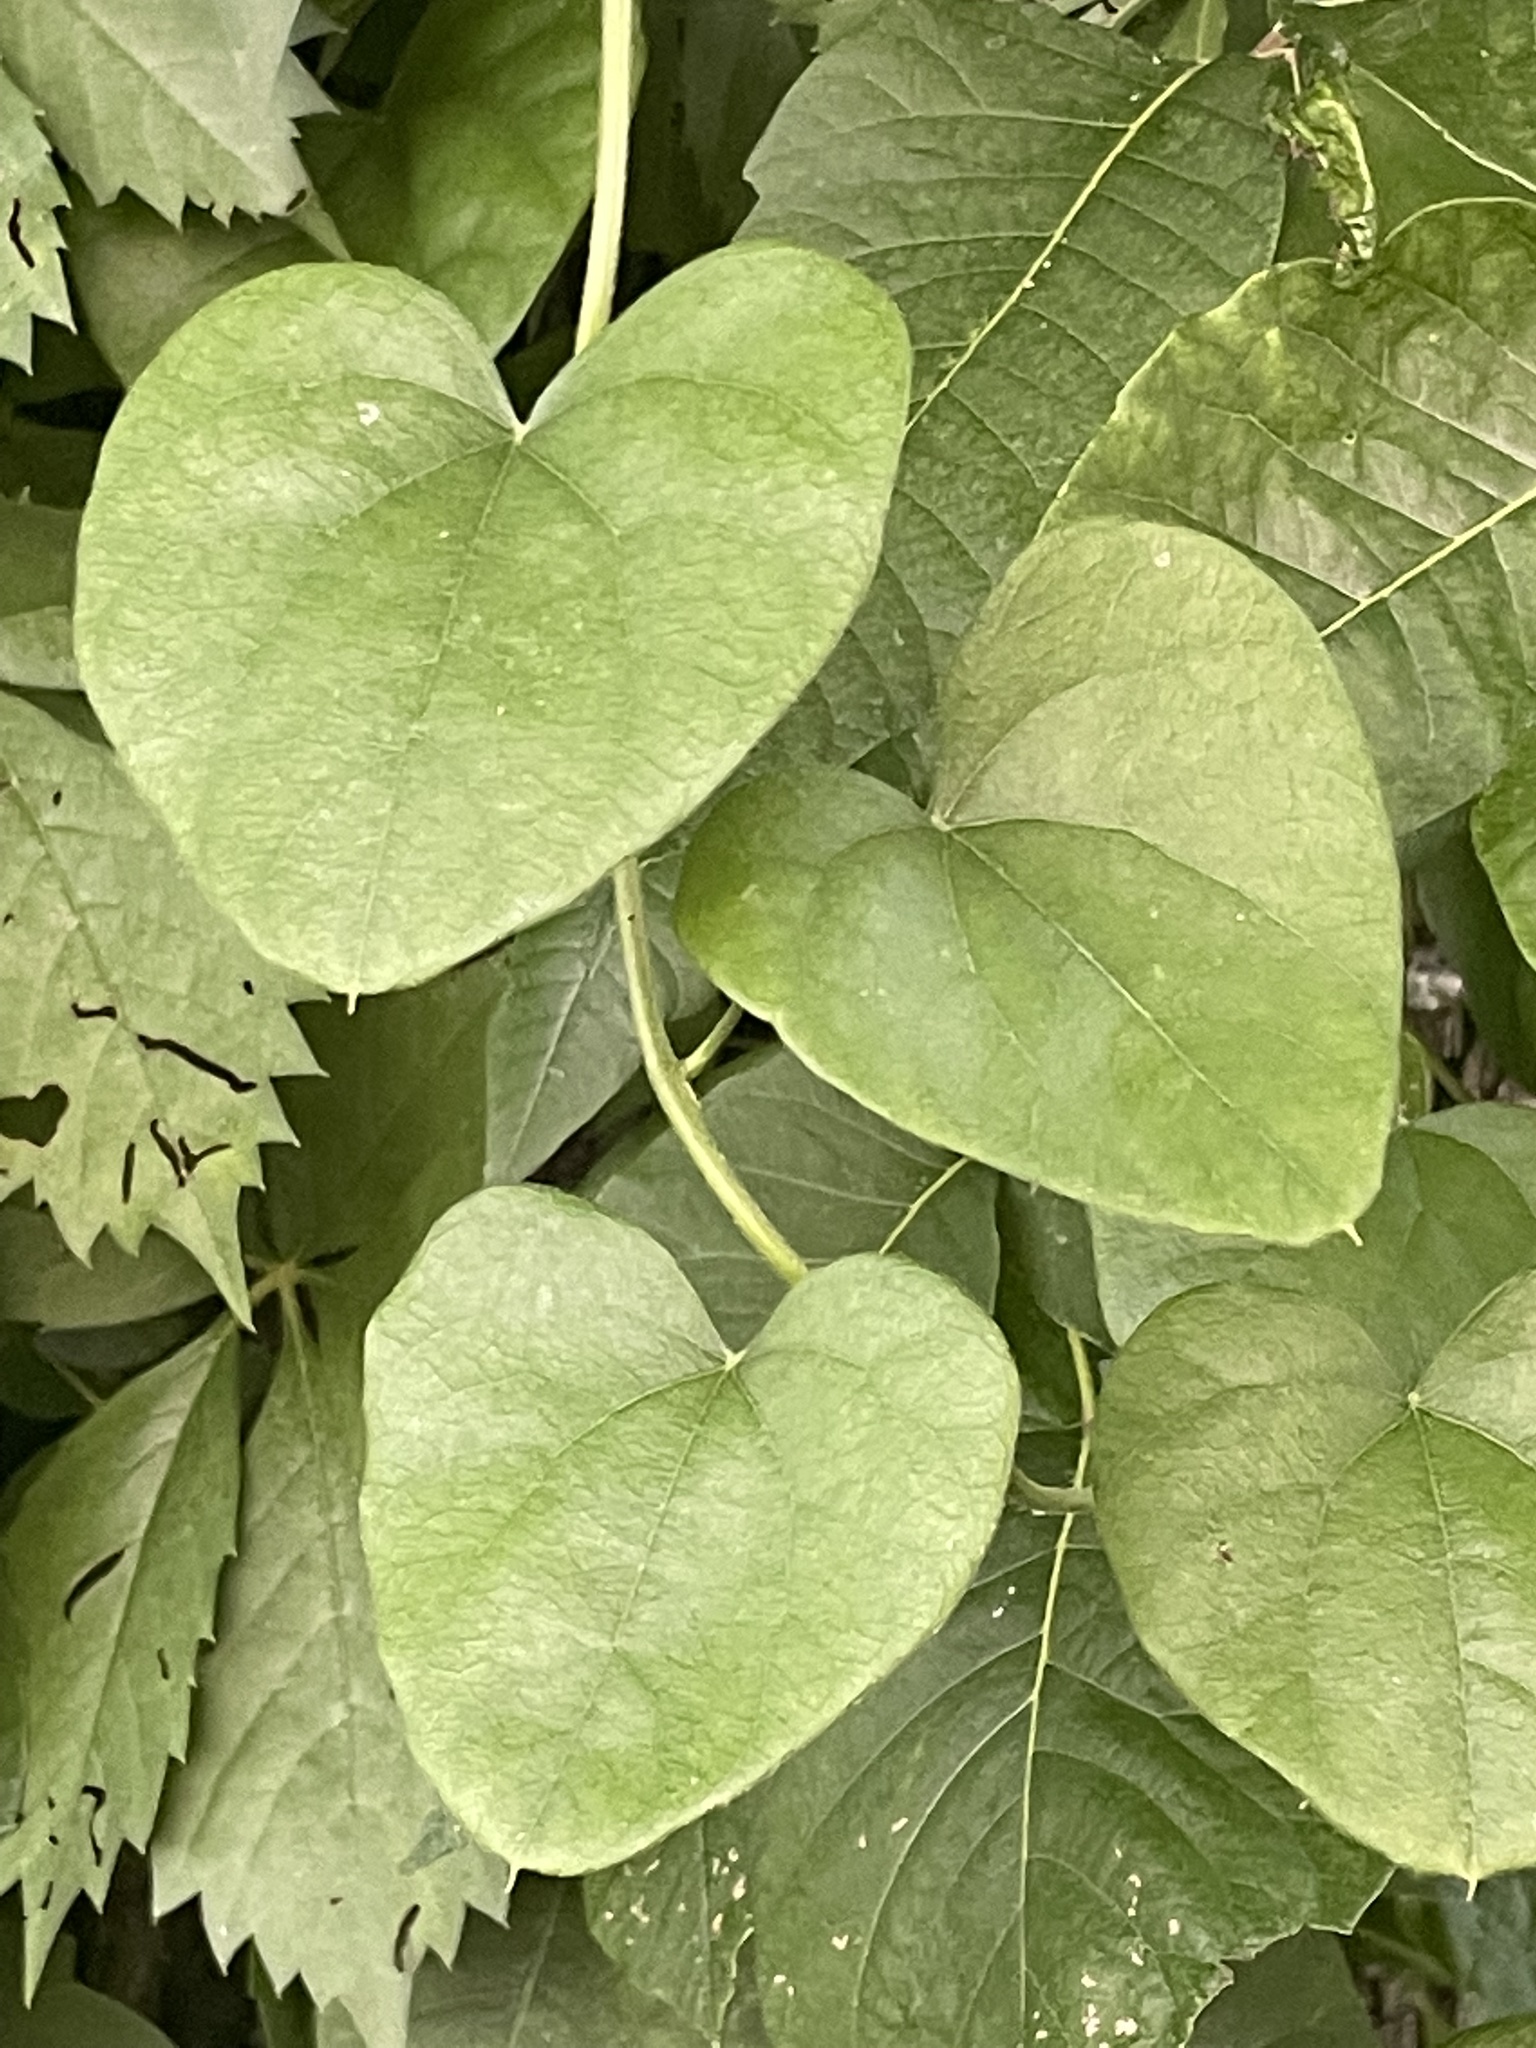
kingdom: Plantae
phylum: Tracheophyta
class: Magnoliopsida
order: Ranunculales
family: Menispermaceae
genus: Cocculus
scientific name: Cocculus carolinus
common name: Carolina moonseed
